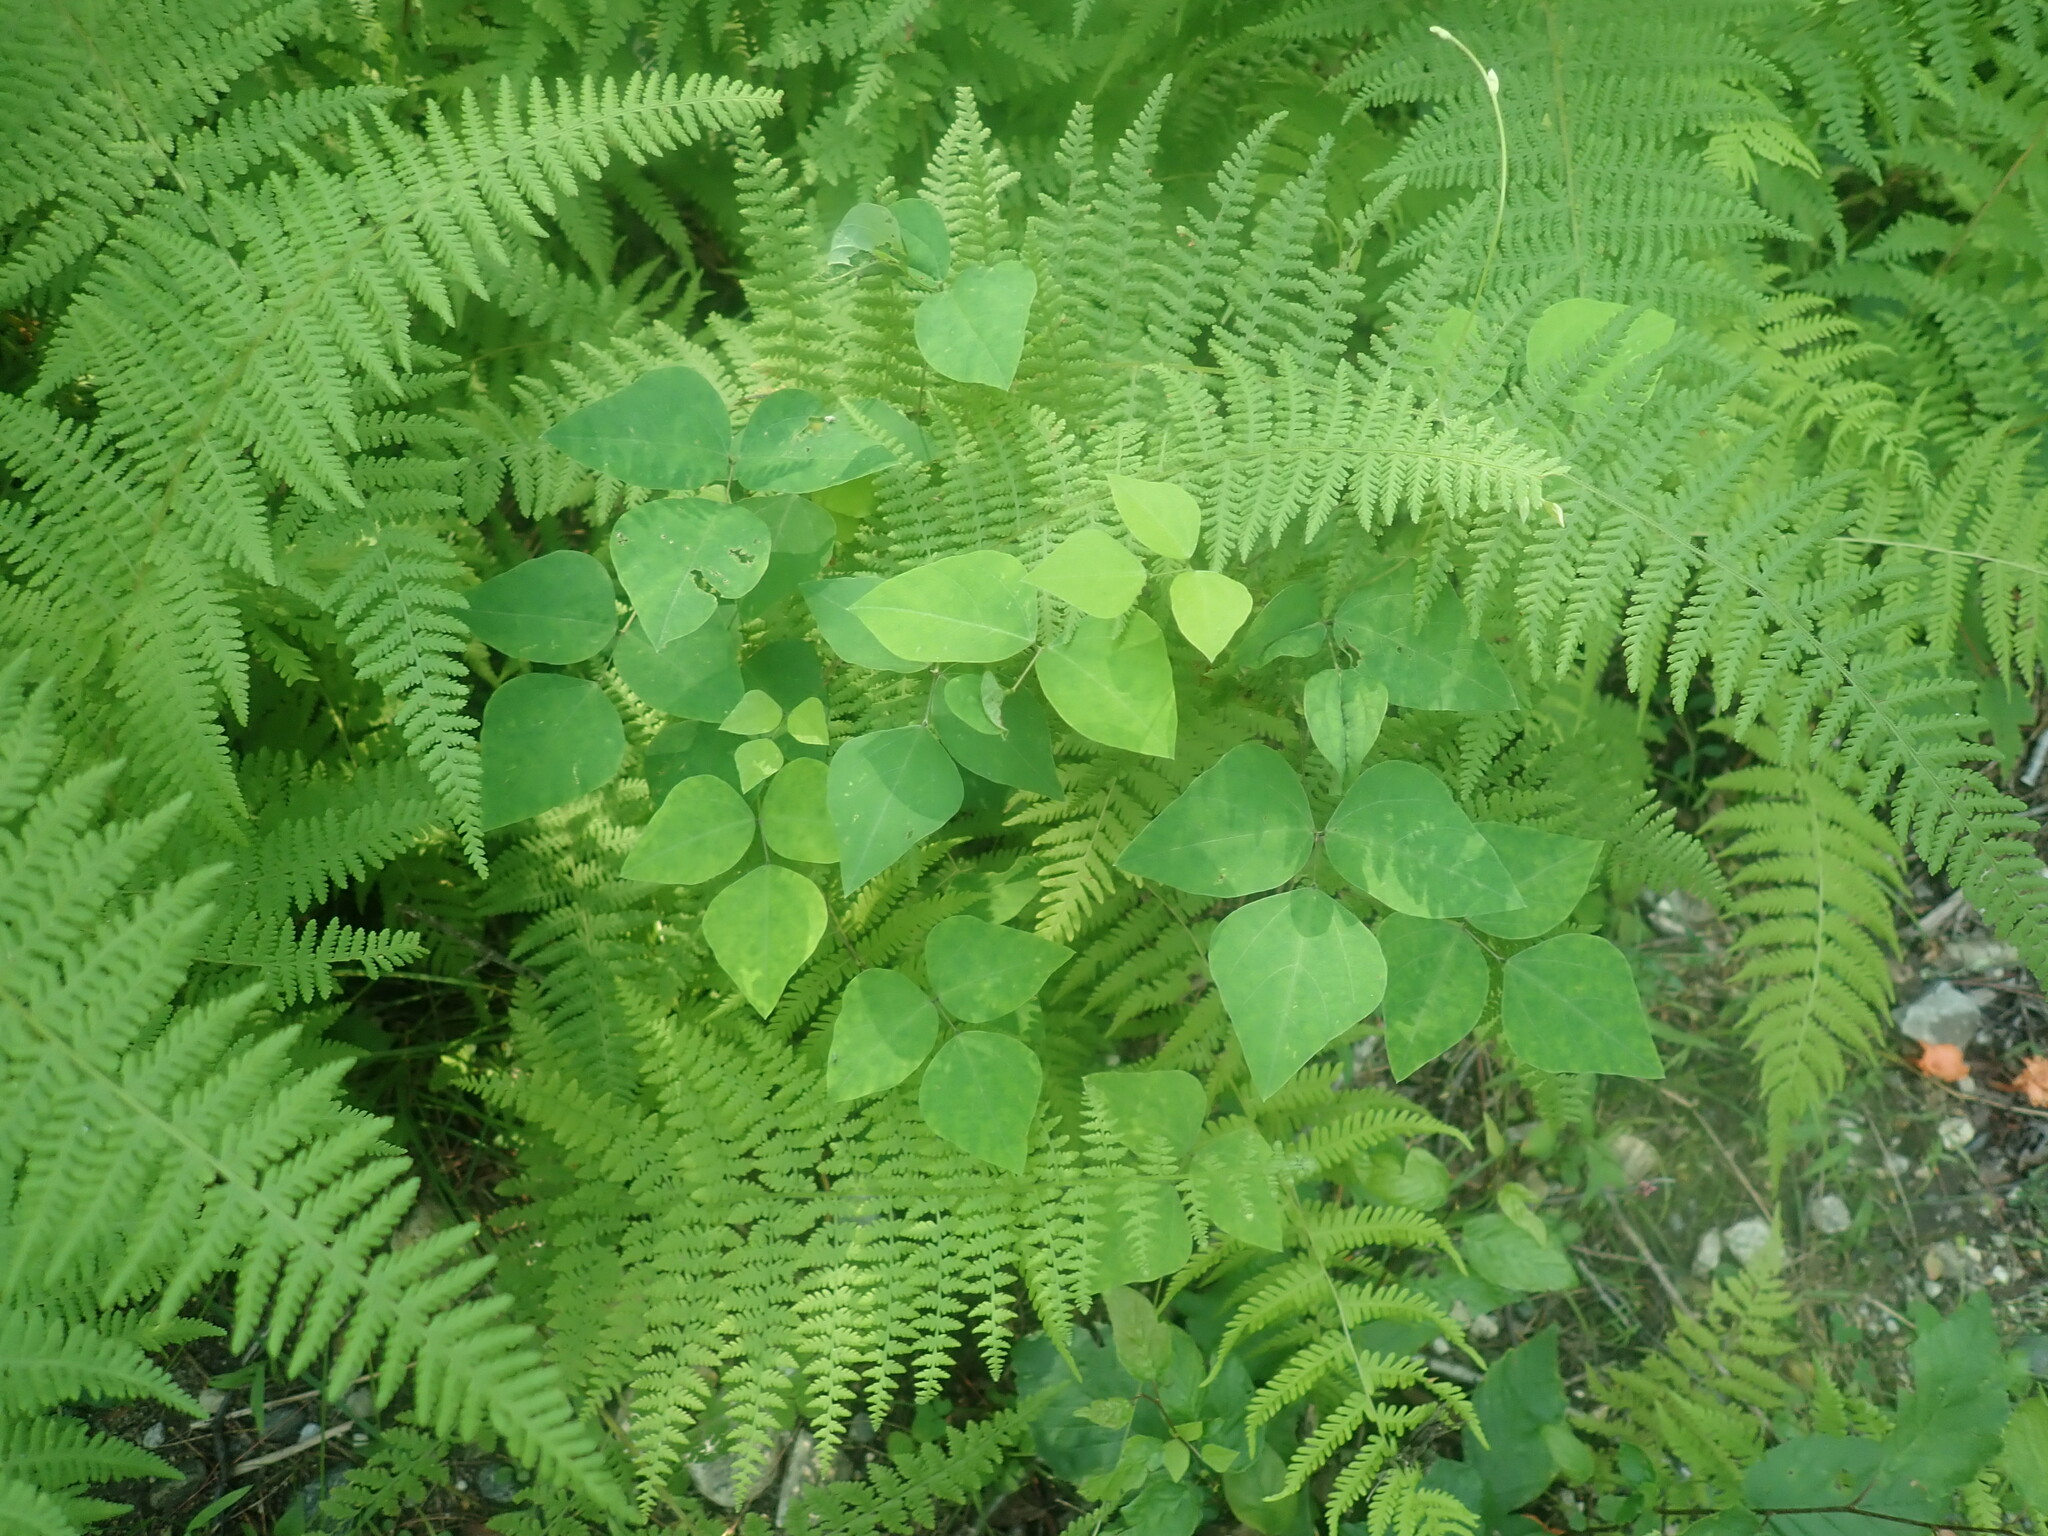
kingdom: Plantae
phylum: Tracheophyta
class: Magnoliopsida
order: Fabales
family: Fabaceae
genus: Amphicarpaea
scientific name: Amphicarpaea bracteata
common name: American hog peanut
